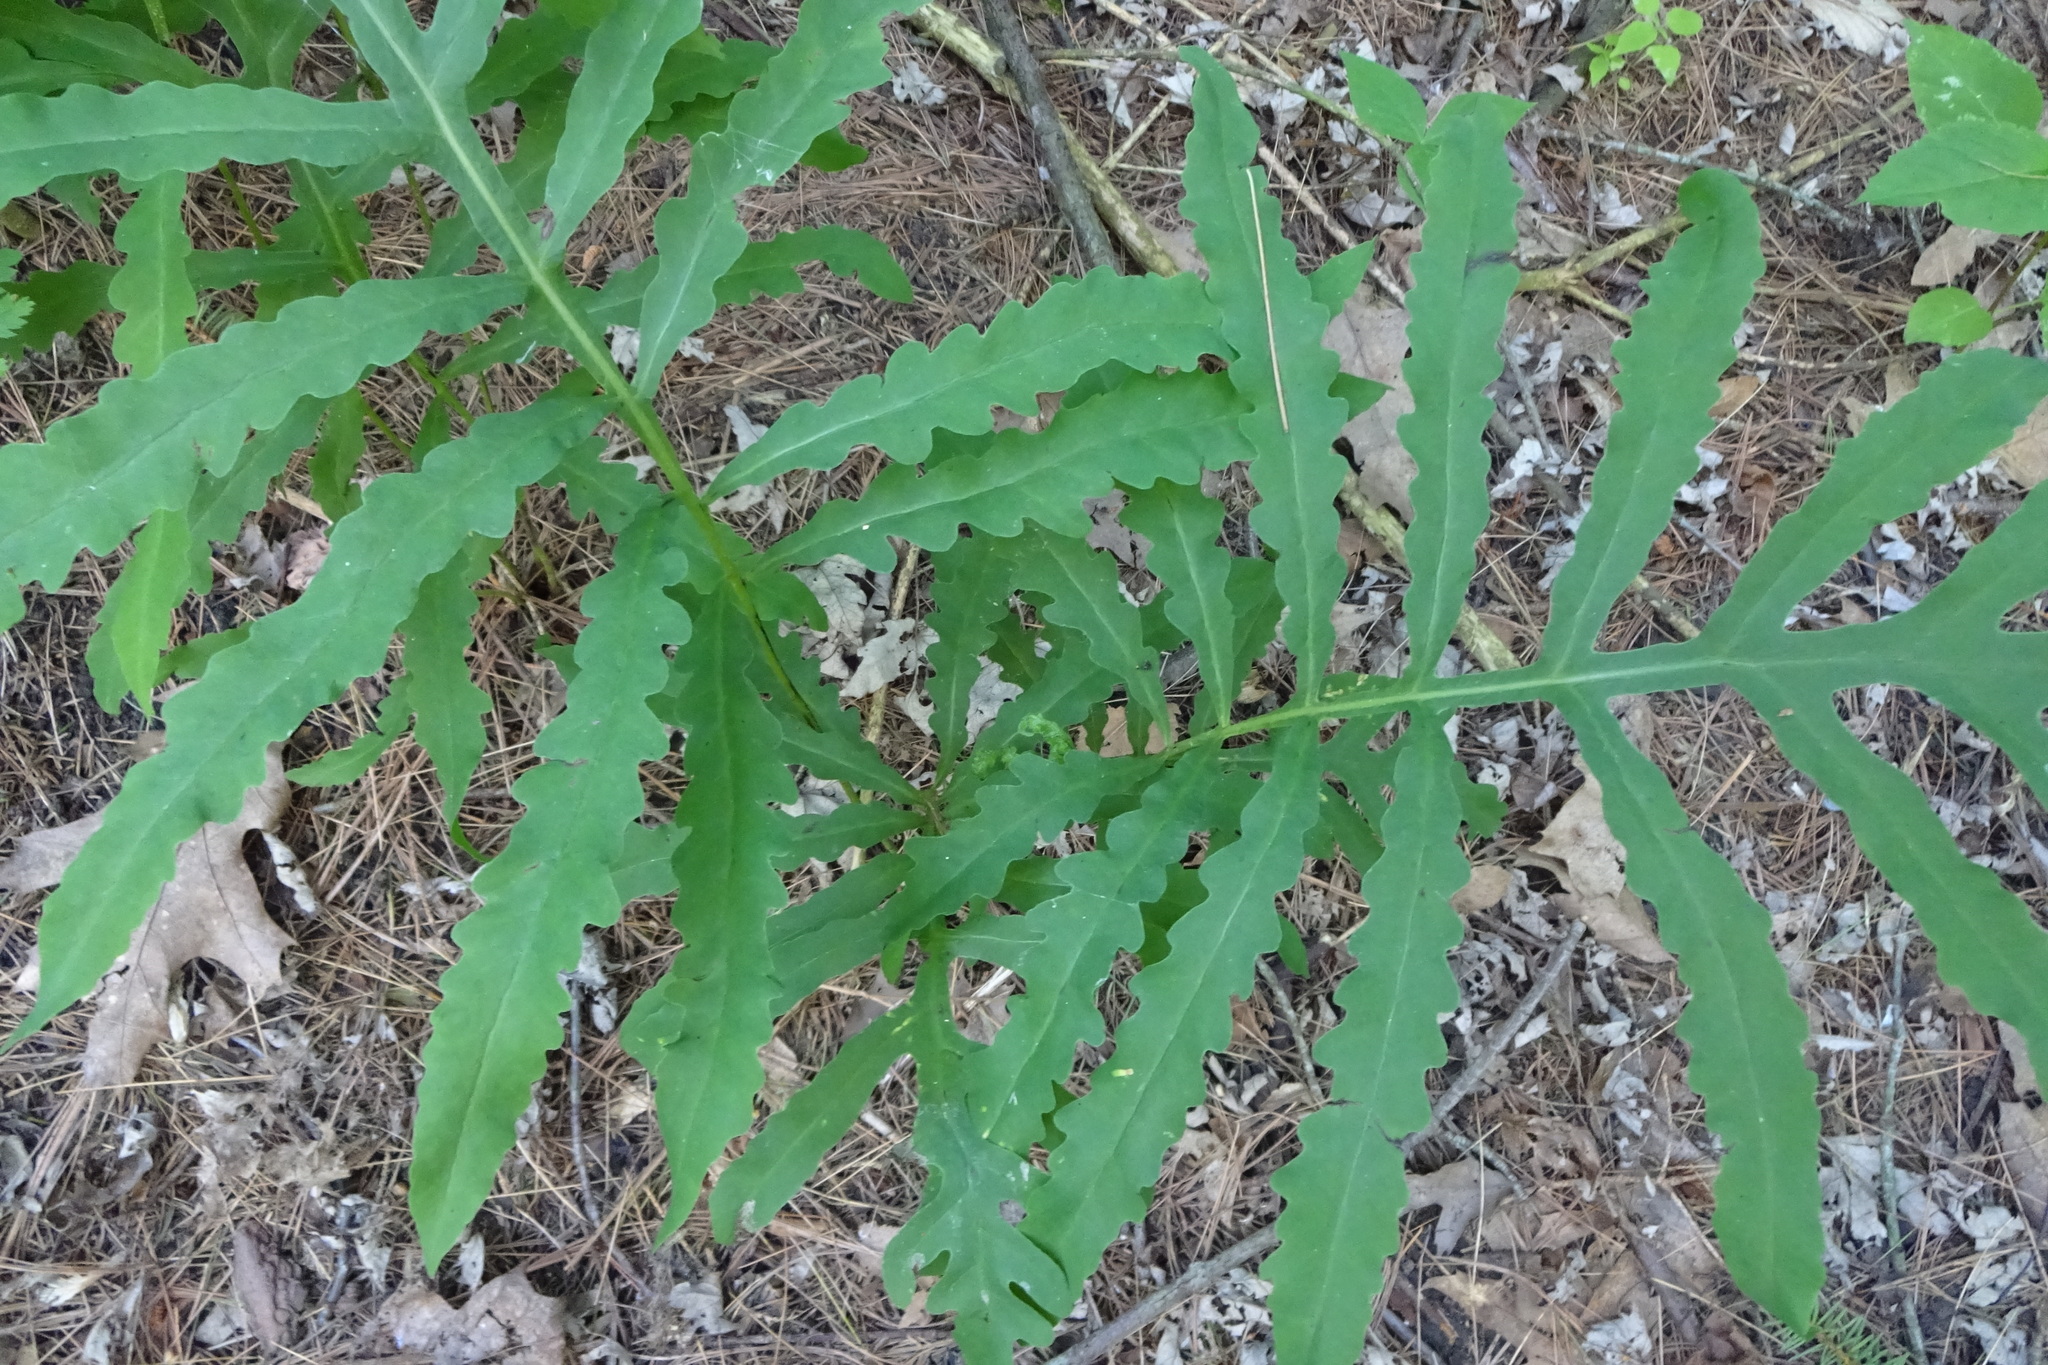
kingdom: Plantae
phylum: Tracheophyta
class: Polypodiopsida
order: Polypodiales
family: Onocleaceae
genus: Onoclea
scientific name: Onoclea sensibilis
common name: Sensitive fern
